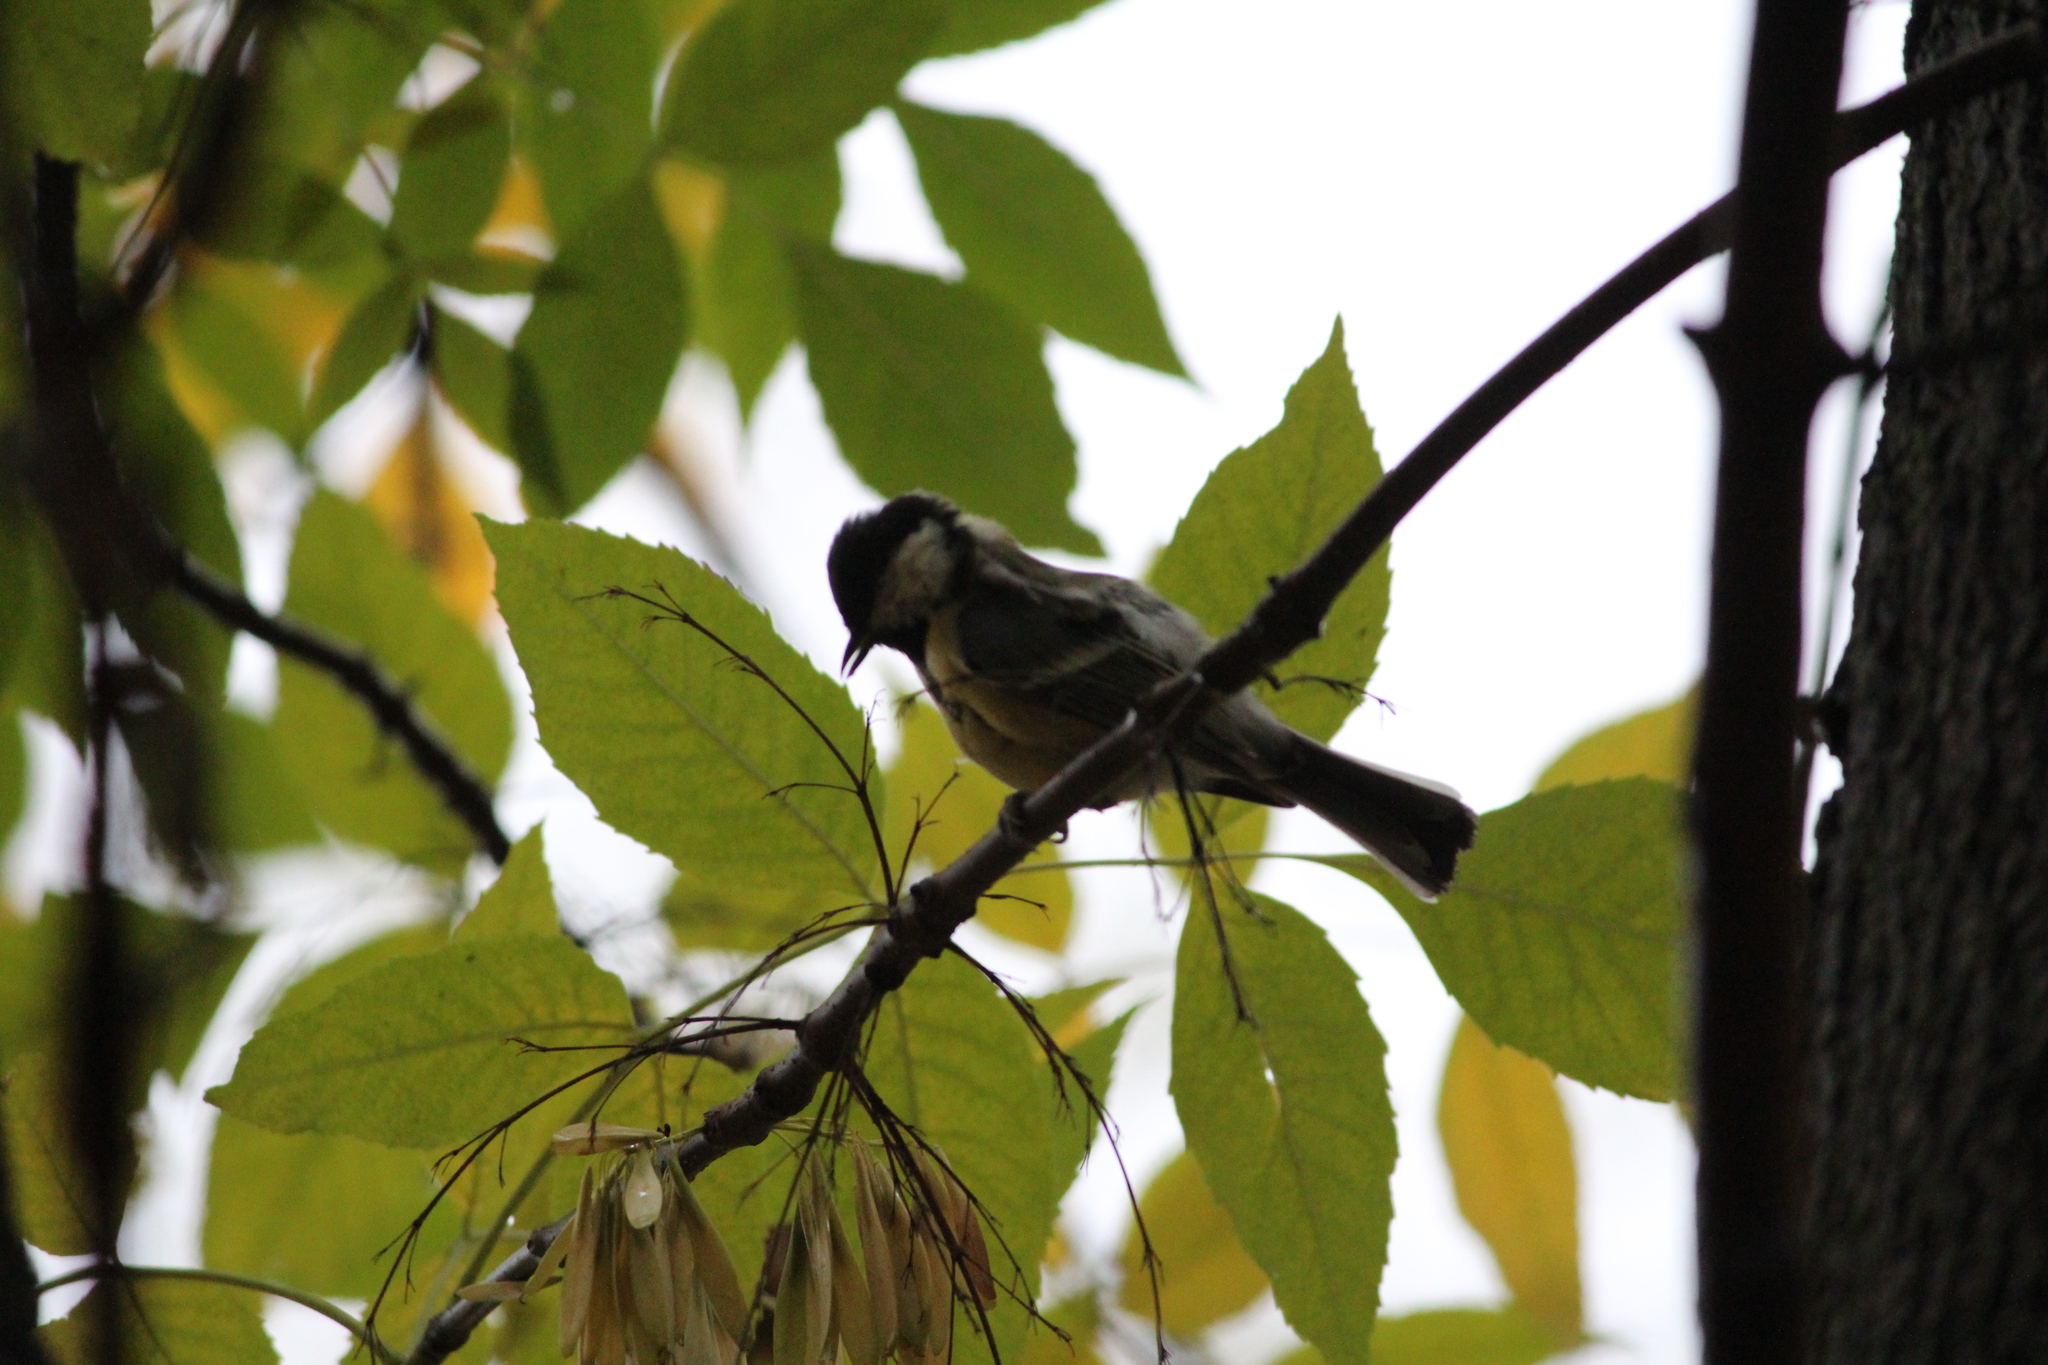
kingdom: Animalia
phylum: Chordata
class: Aves
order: Passeriformes
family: Paridae
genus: Parus
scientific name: Parus major
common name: Great tit
